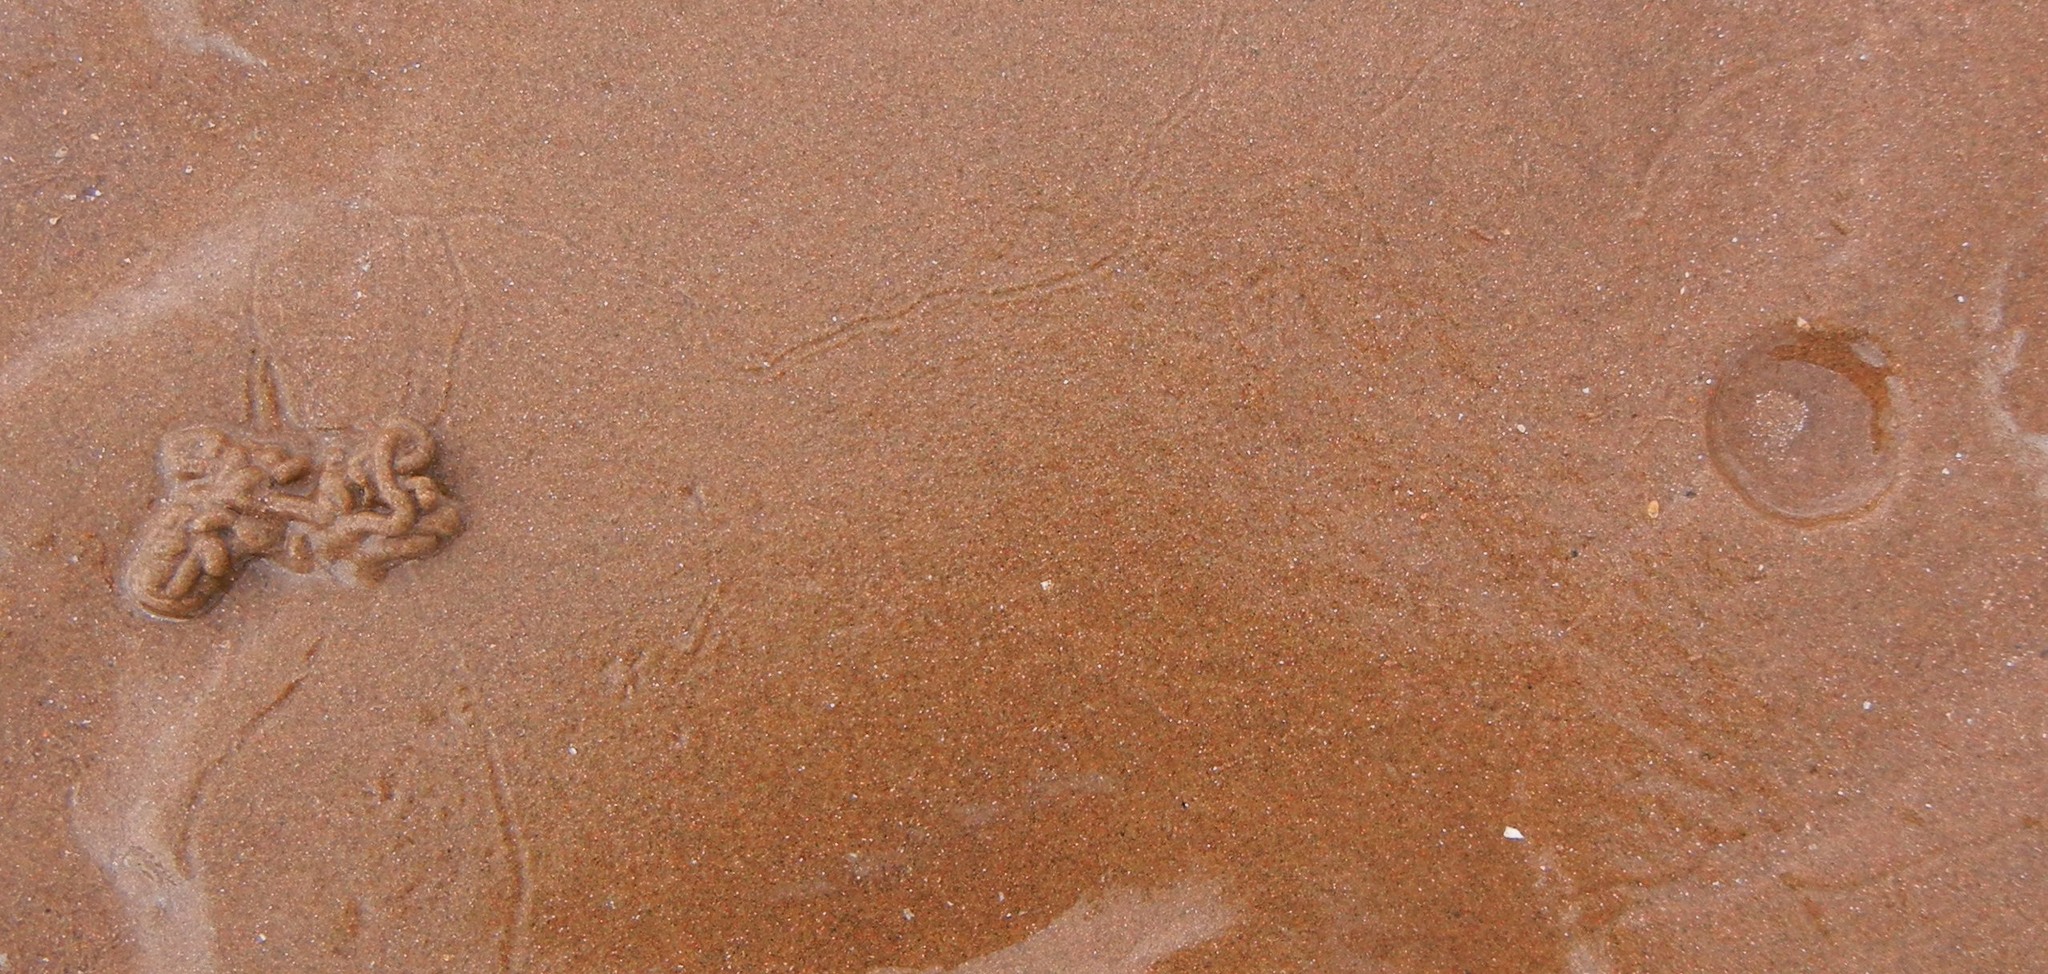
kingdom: Animalia
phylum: Annelida
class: Polychaeta
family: Arenicolidae
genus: Arenicola
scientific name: Arenicola marina
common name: Blow lugworm
